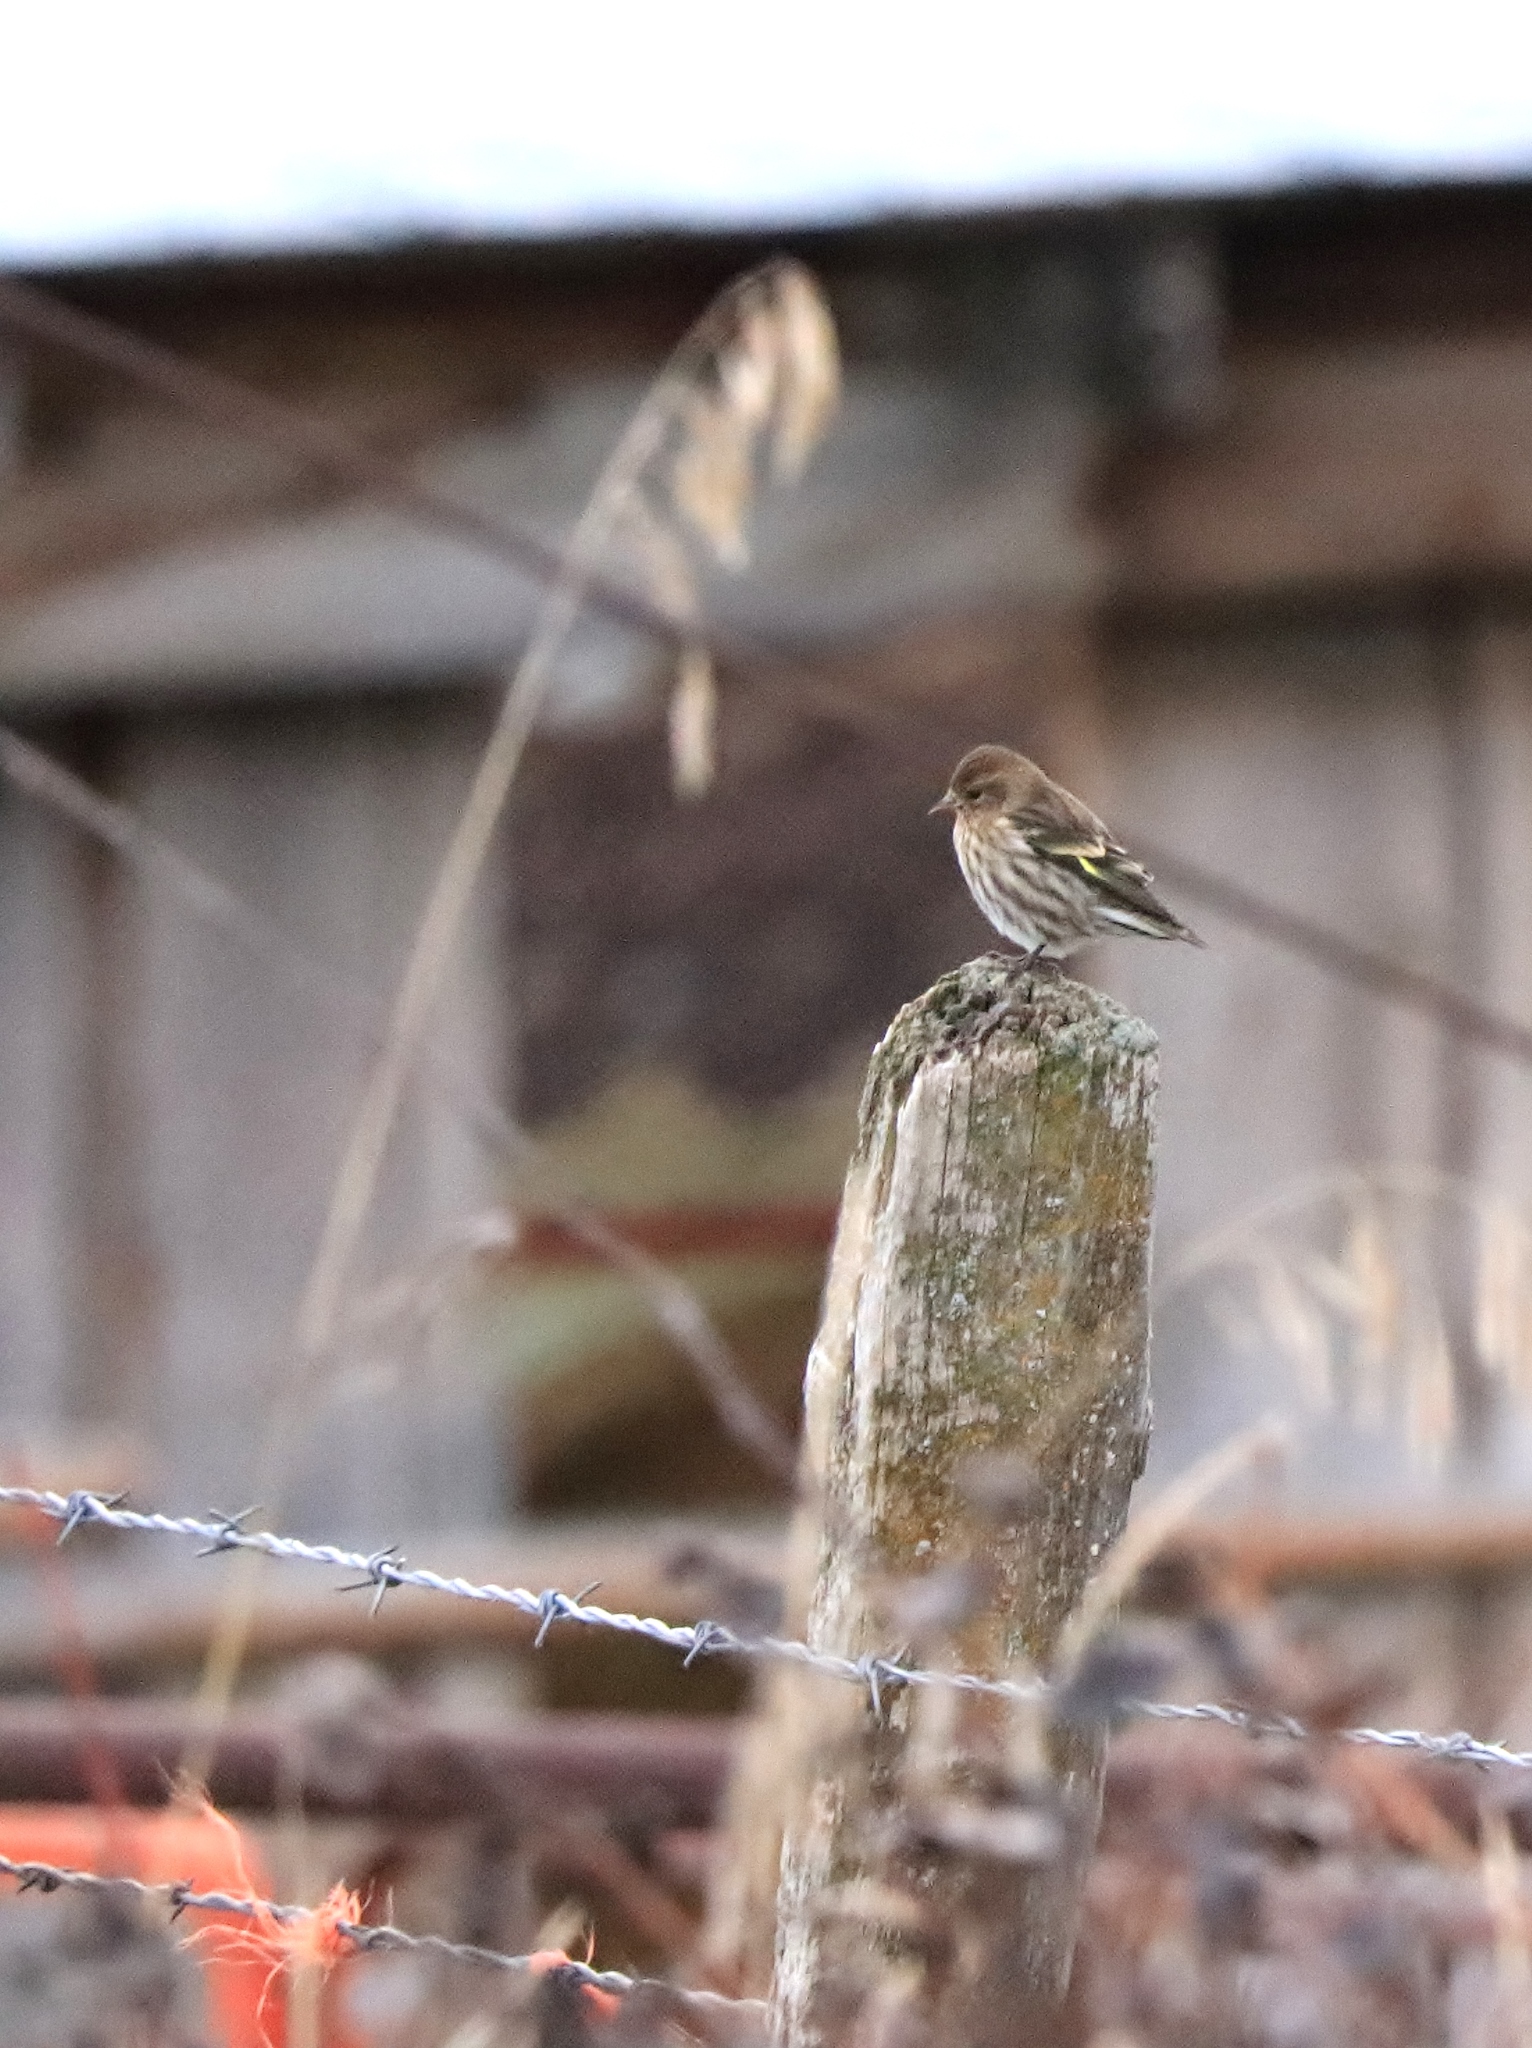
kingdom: Animalia
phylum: Chordata
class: Aves
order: Passeriformes
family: Fringillidae
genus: Spinus
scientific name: Spinus pinus
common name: Pine siskin
